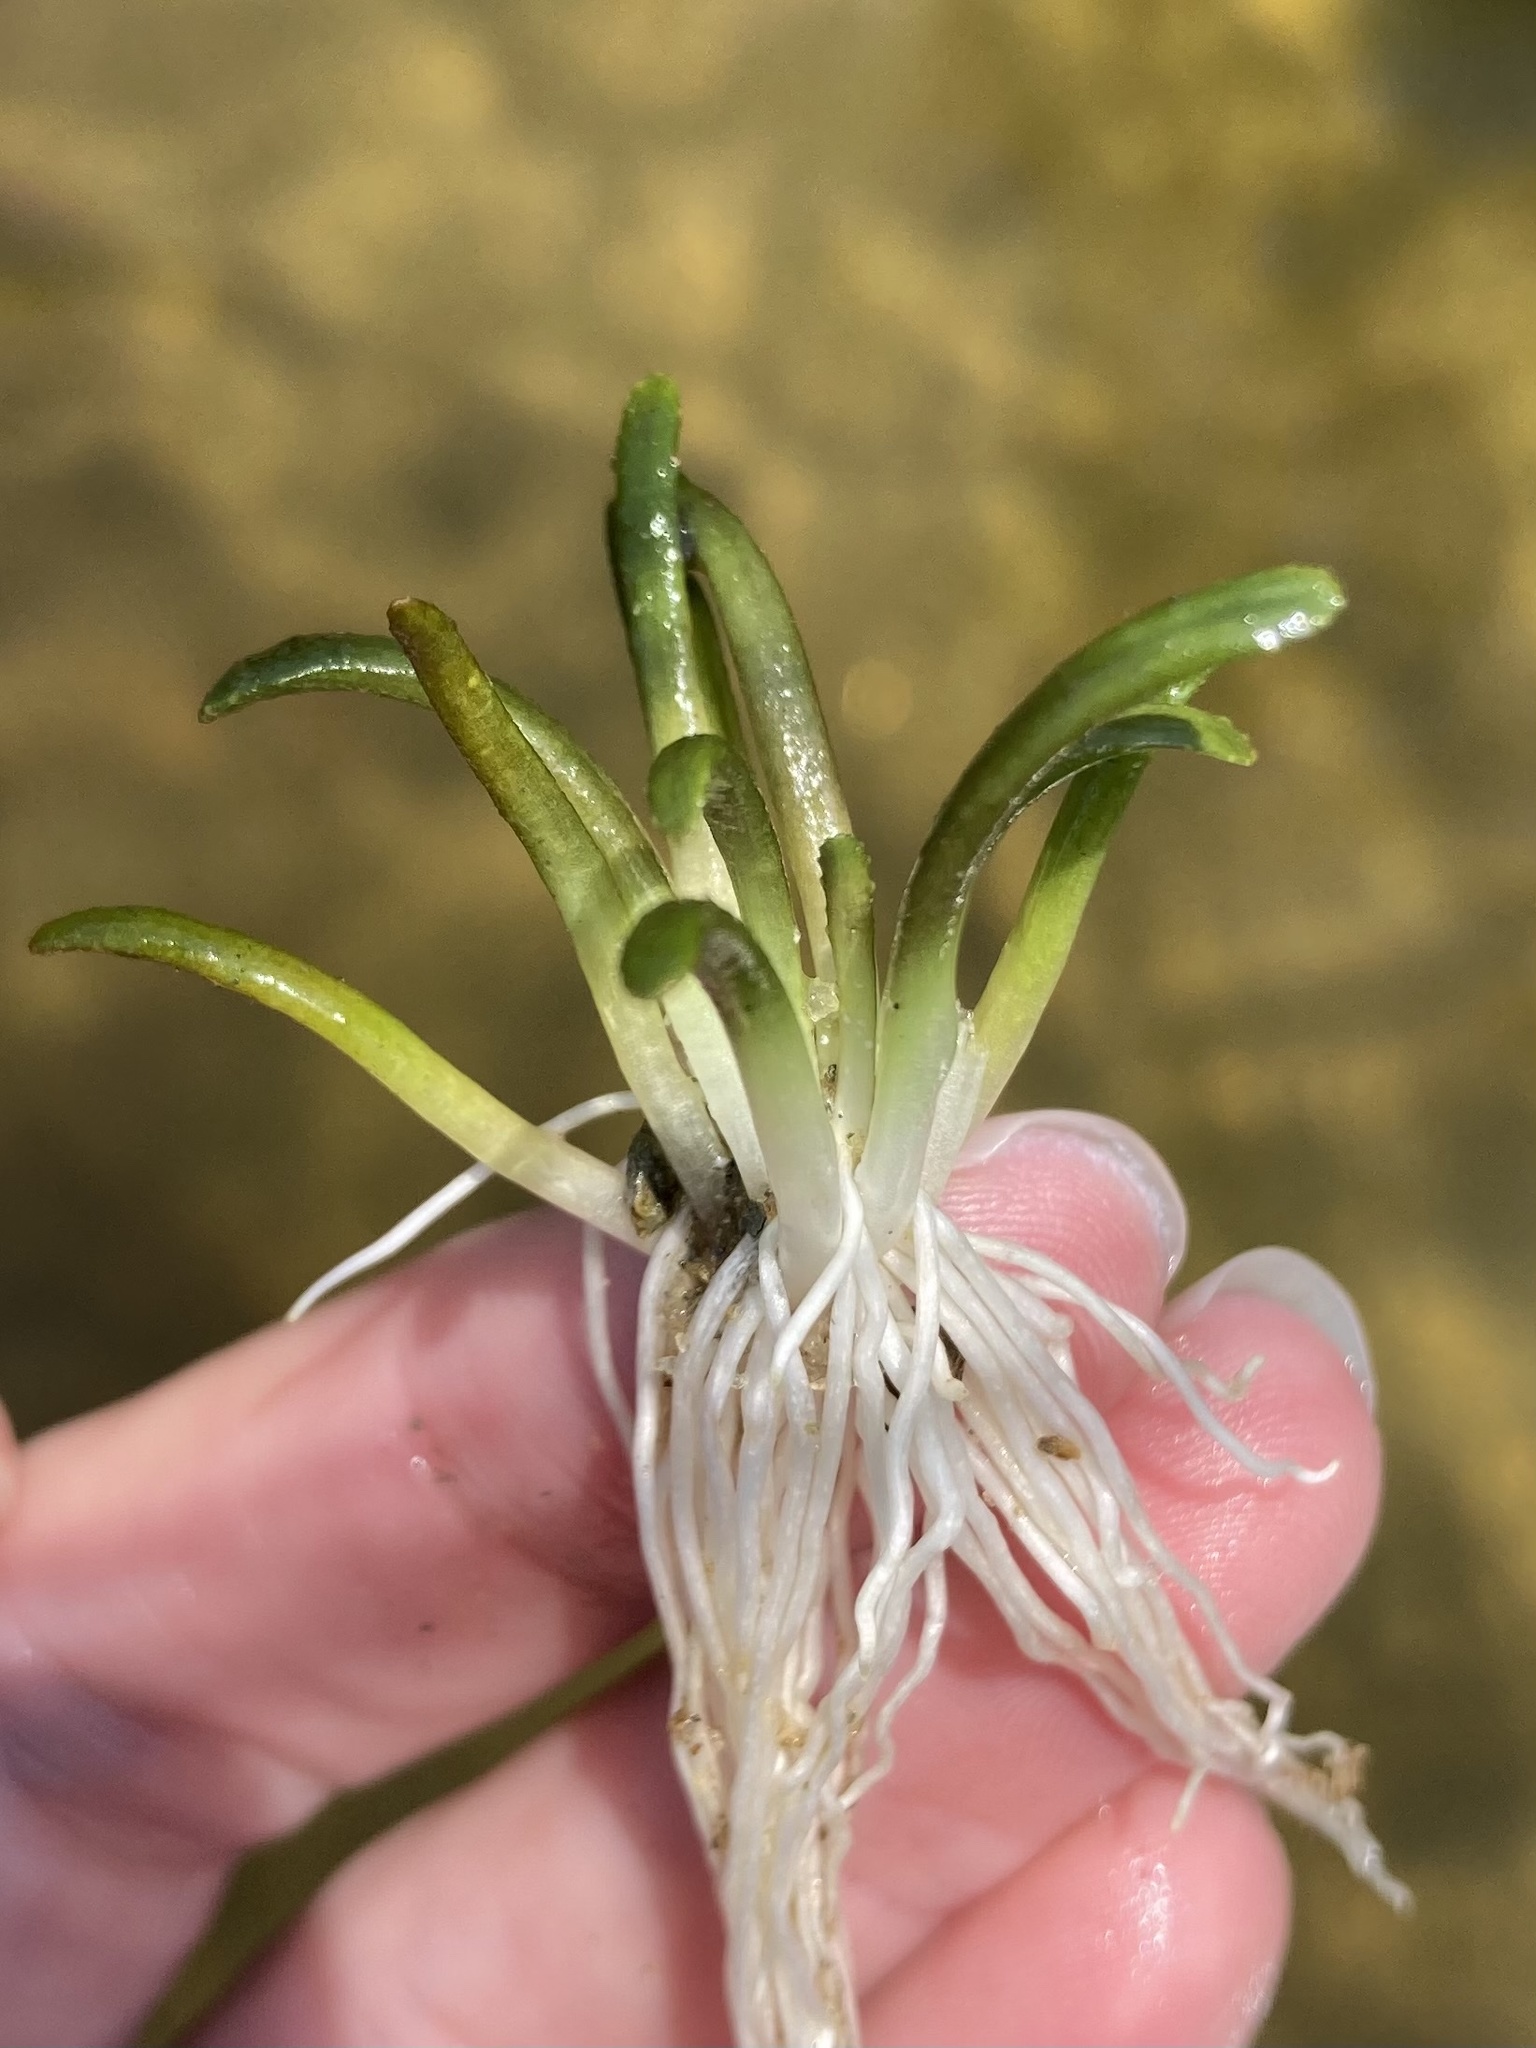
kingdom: Plantae
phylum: Tracheophyta
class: Magnoliopsida
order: Asterales
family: Campanulaceae
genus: Lobelia
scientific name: Lobelia dortmanna
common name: Water lobelia
